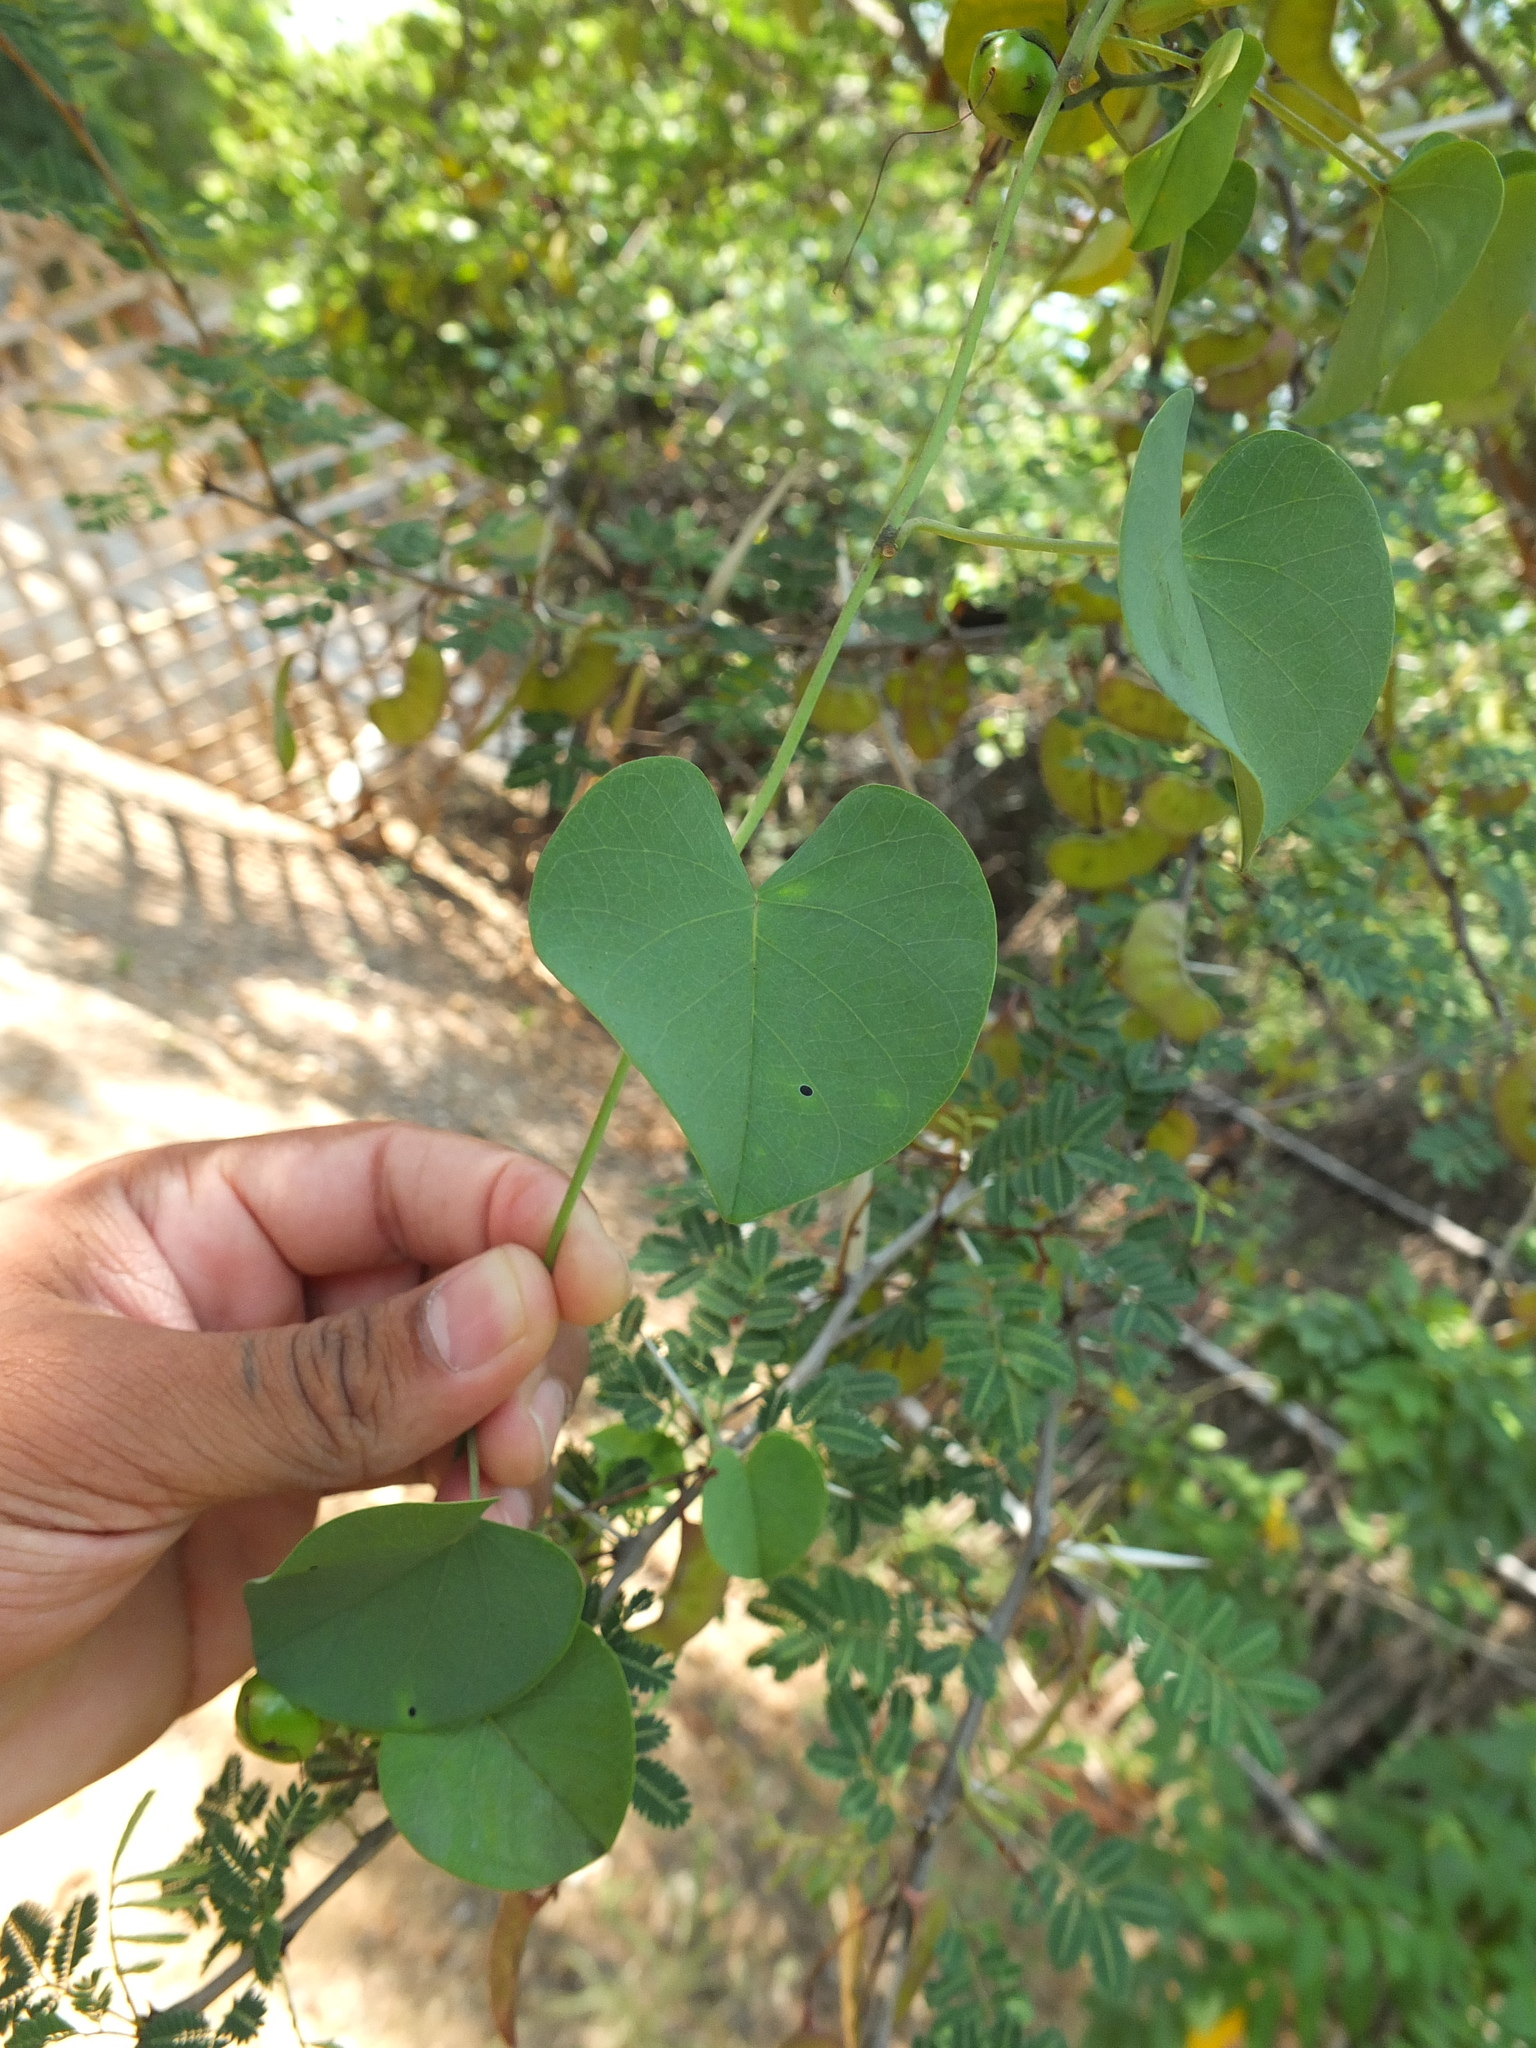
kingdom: Plantae
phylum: Tracheophyta
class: Magnoliopsida
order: Solanales
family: Convolvulaceae
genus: Rivea
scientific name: Rivea hypocrateriformis
